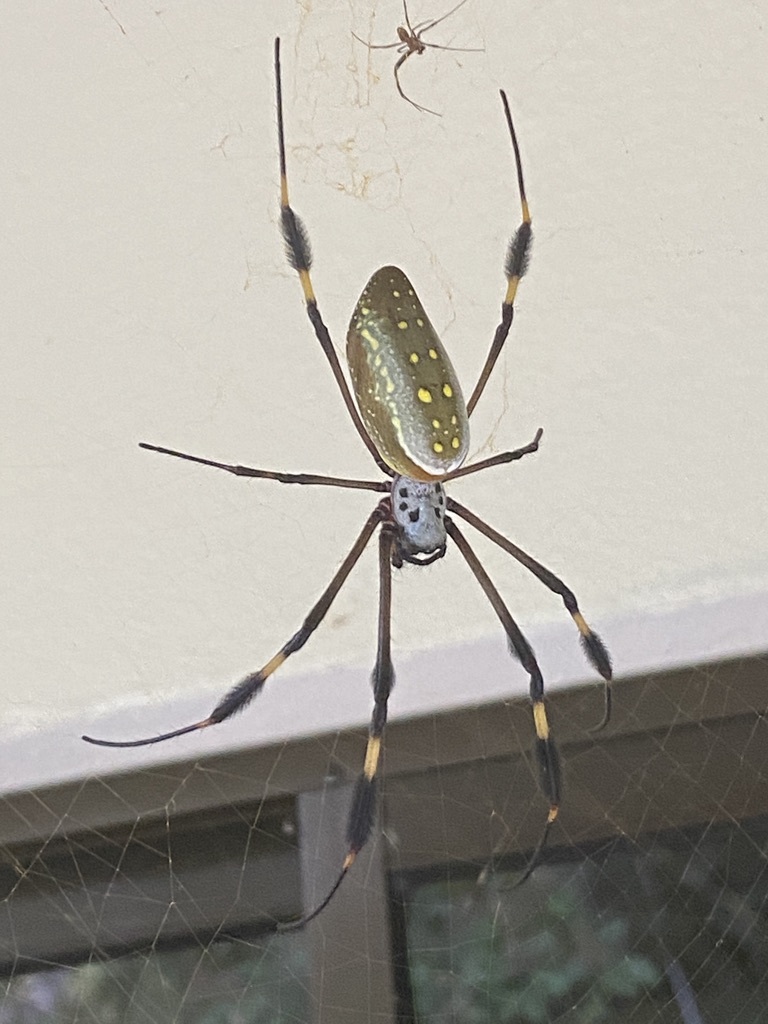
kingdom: Animalia
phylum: Arthropoda
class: Arachnida
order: Araneae
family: Araneidae
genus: Trichonephila
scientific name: Trichonephila clavipes
